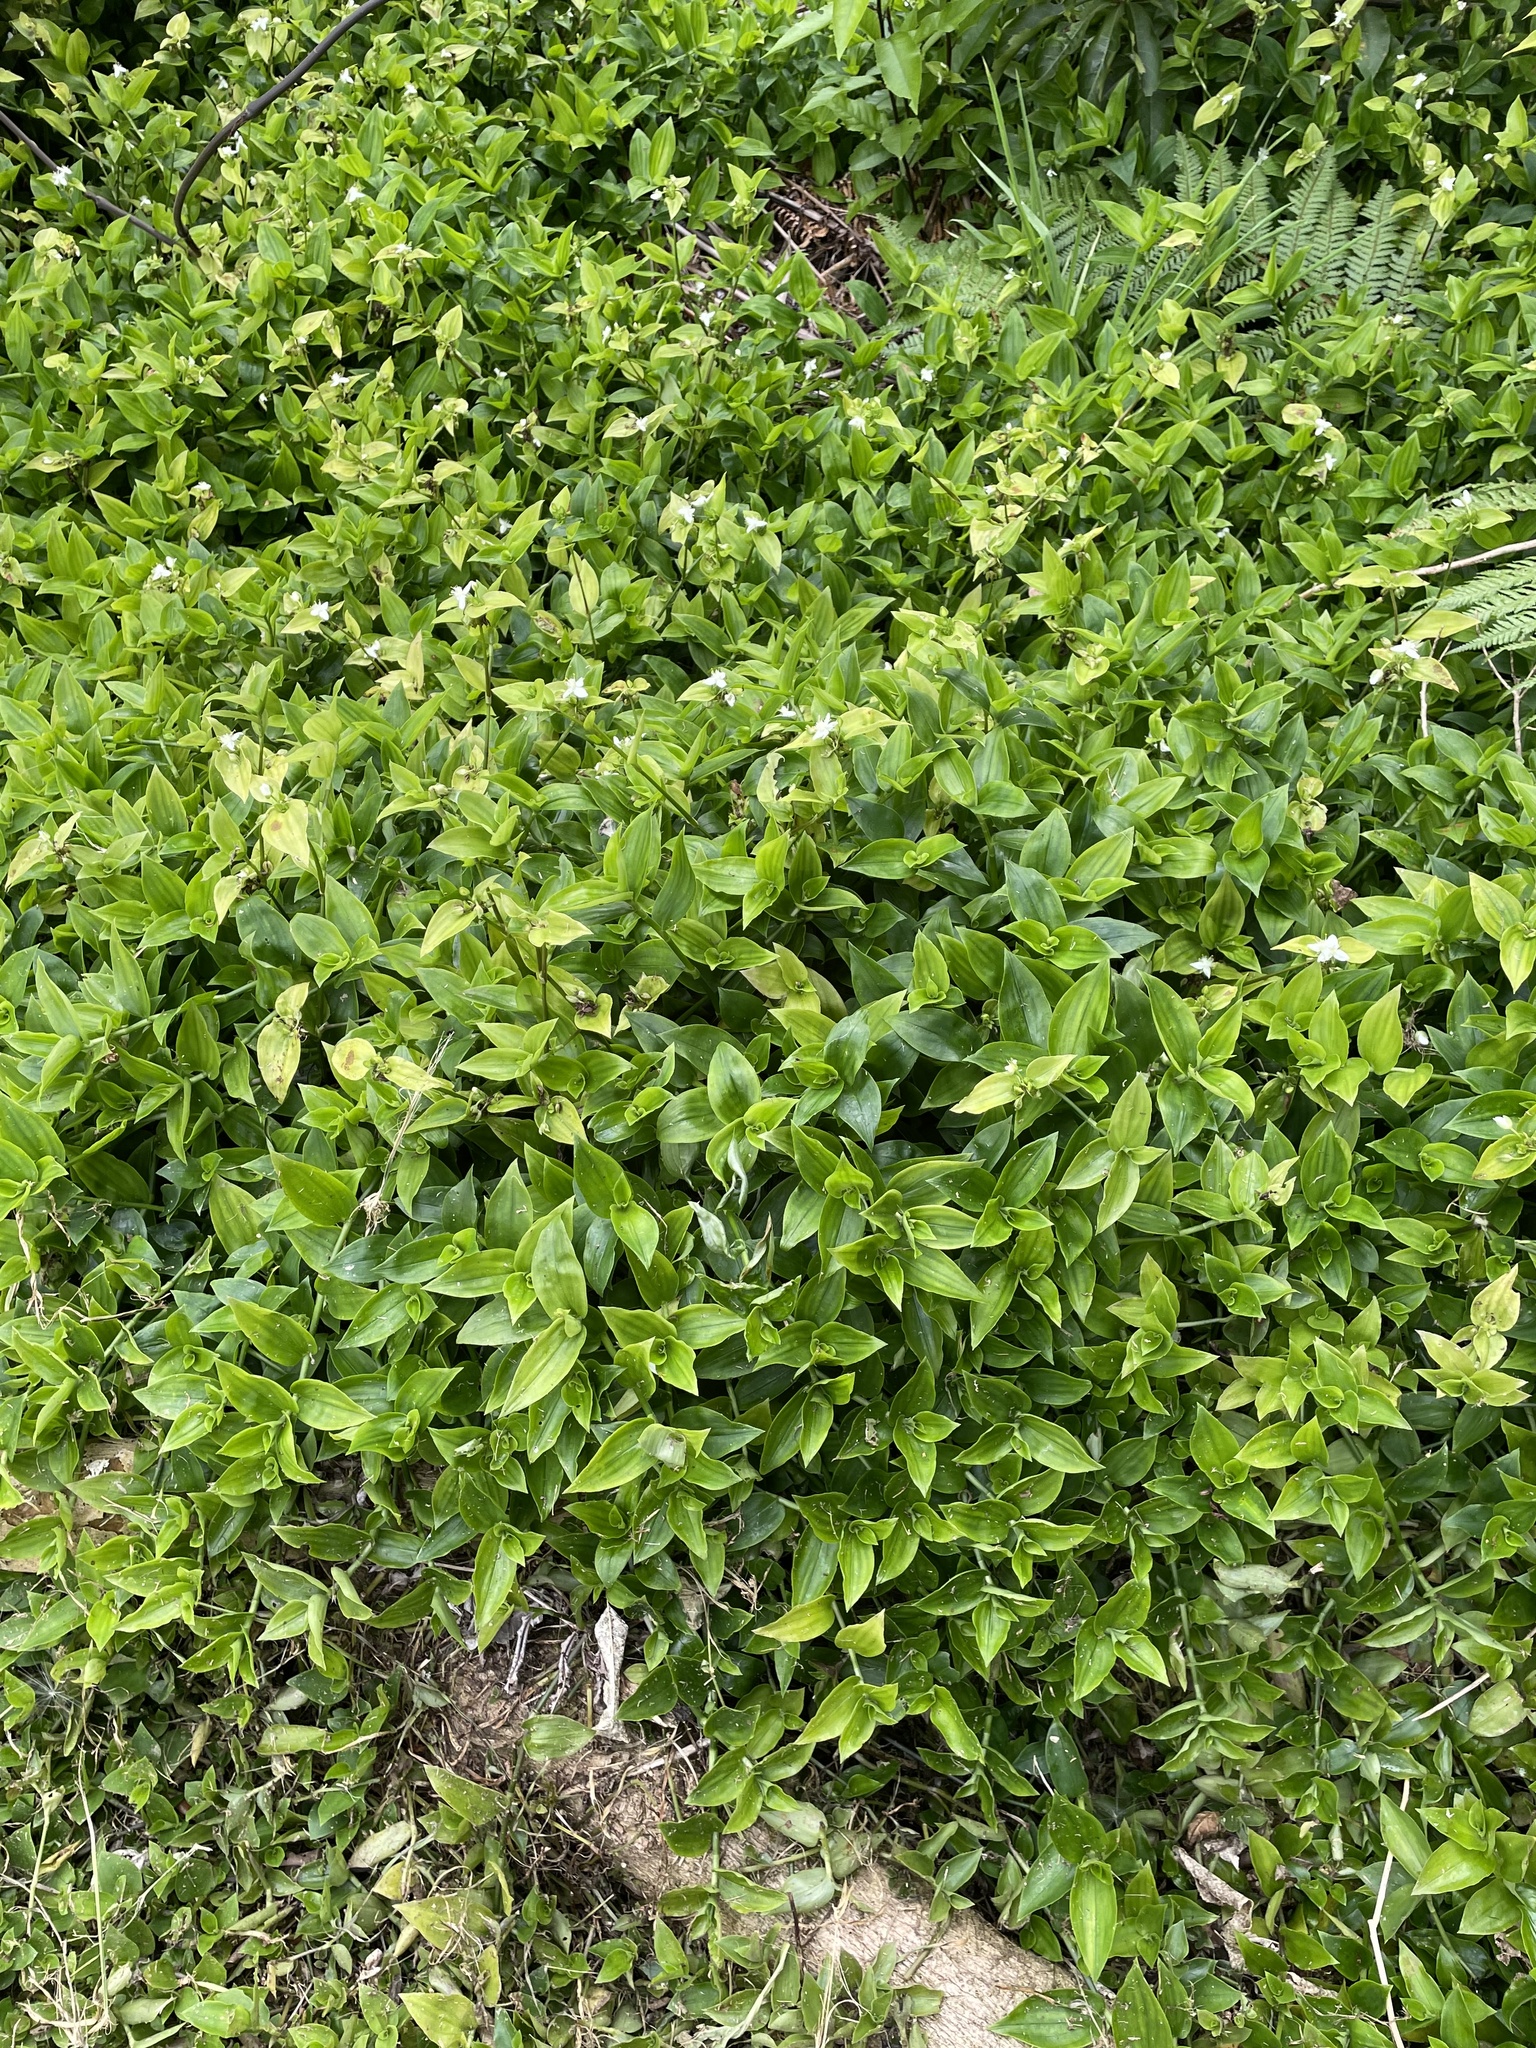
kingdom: Plantae
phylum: Tracheophyta
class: Liliopsida
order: Commelinales
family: Commelinaceae
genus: Tradescantia
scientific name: Tradescantia fluminensis
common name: Wandering-jew
